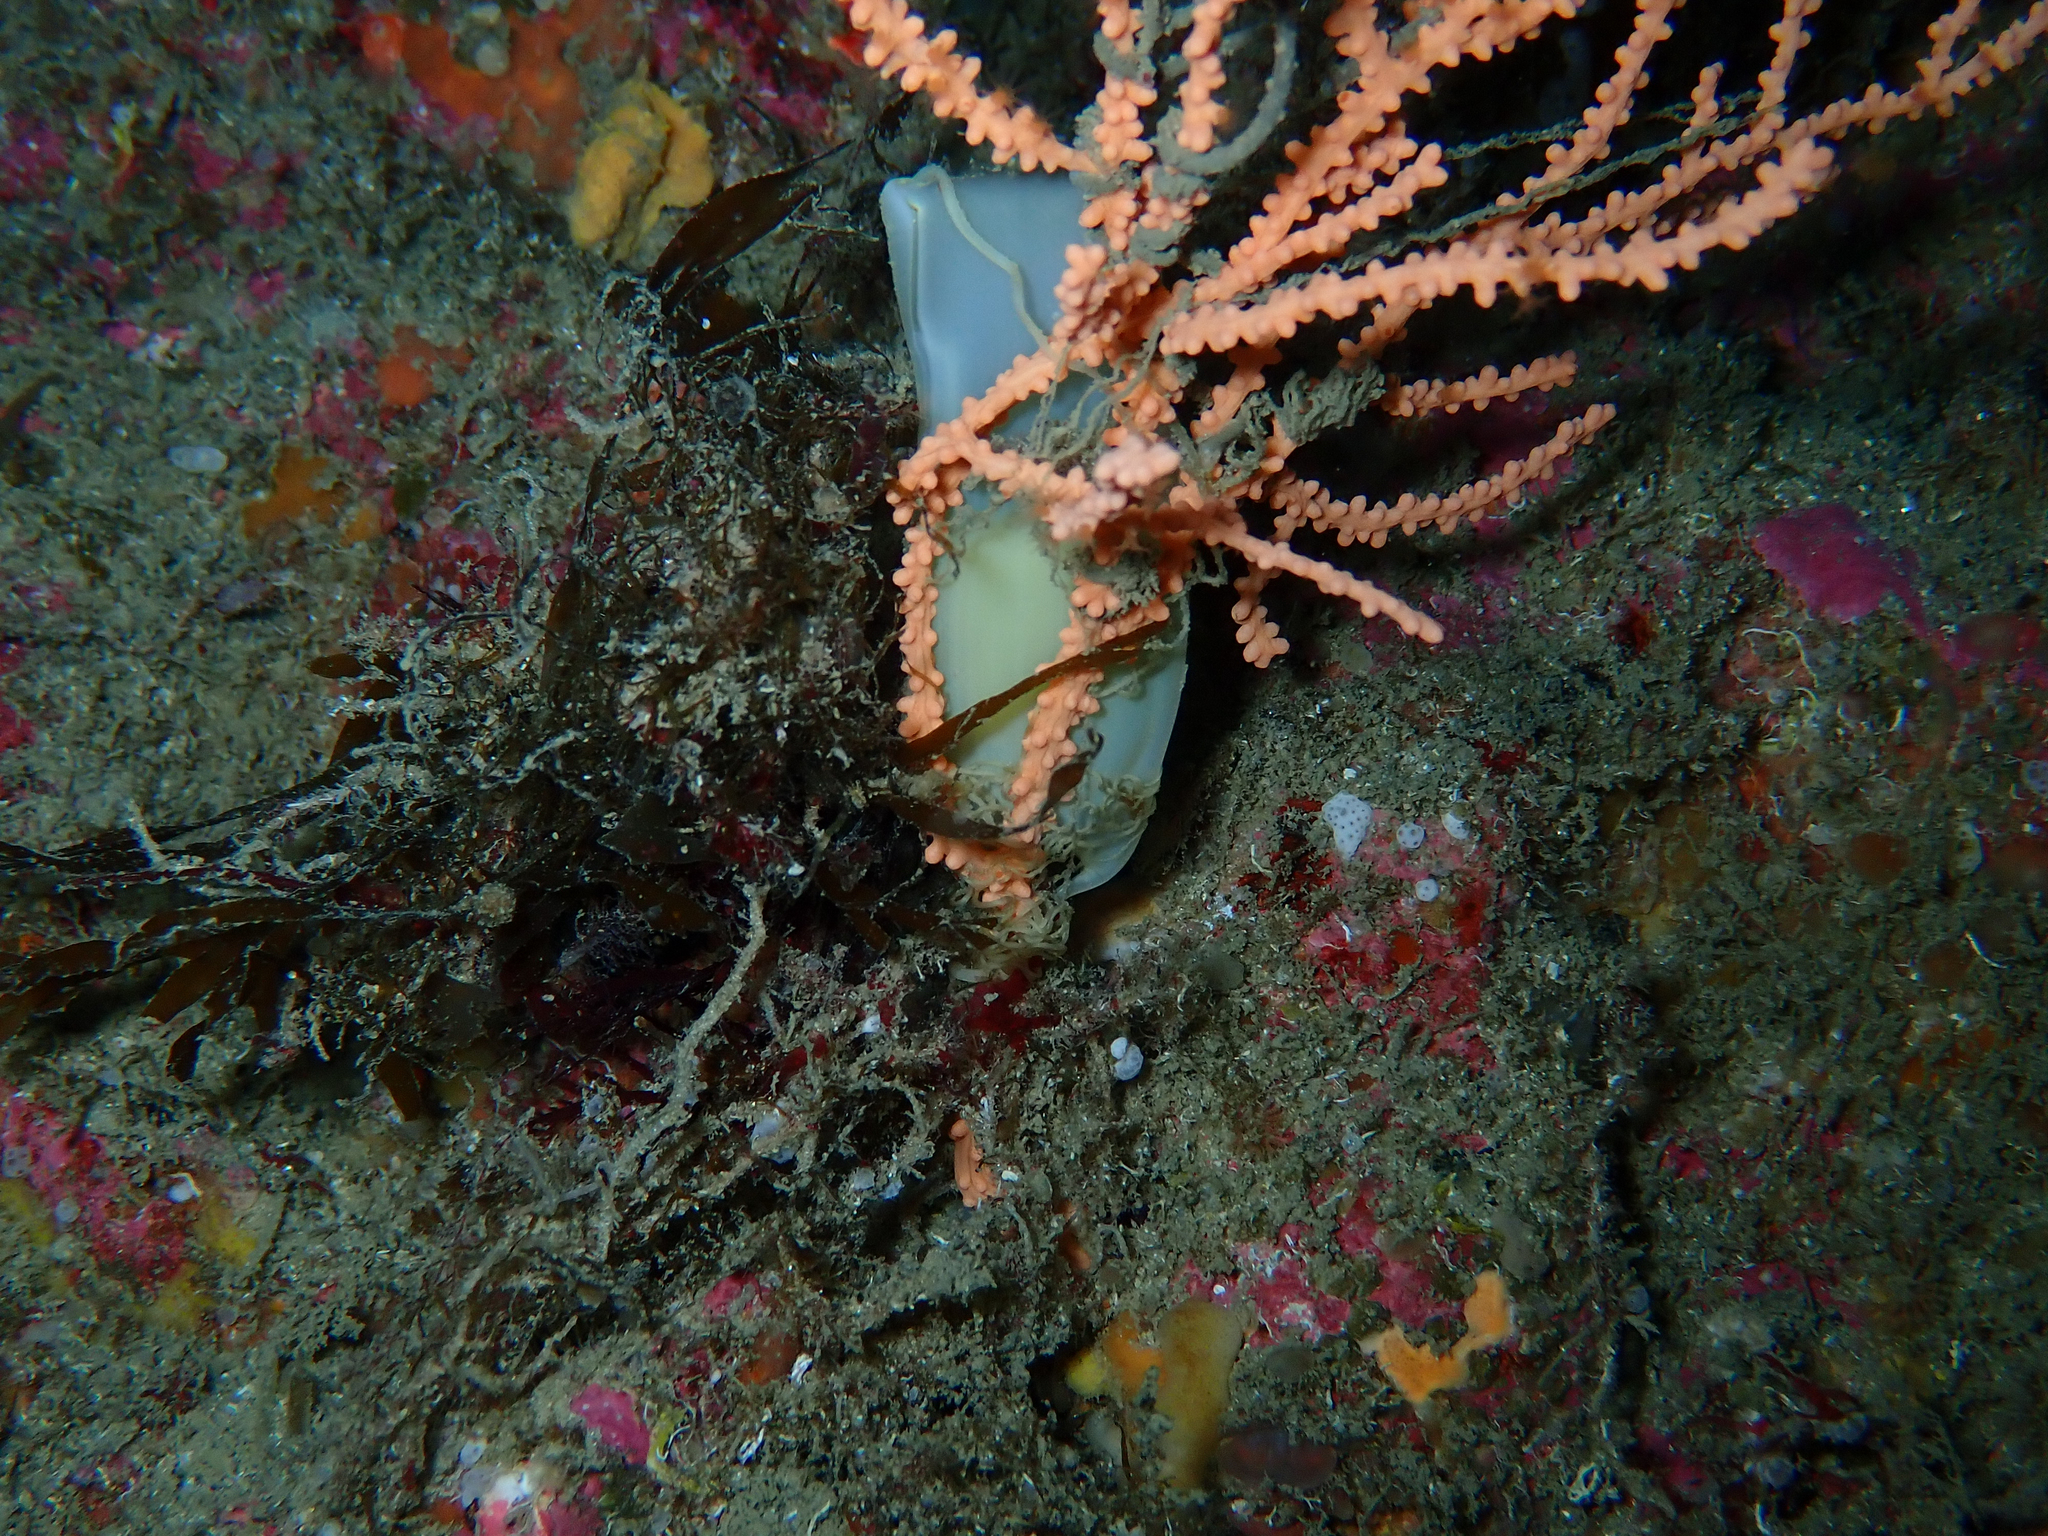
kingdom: Animalia
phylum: Chordata
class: Elasmobranchii
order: Carcharhiniformes
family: Scyliorhinidae
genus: Scyliorhinus
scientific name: Scyliorhinus canicula
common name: Lesser spotted dogfish
